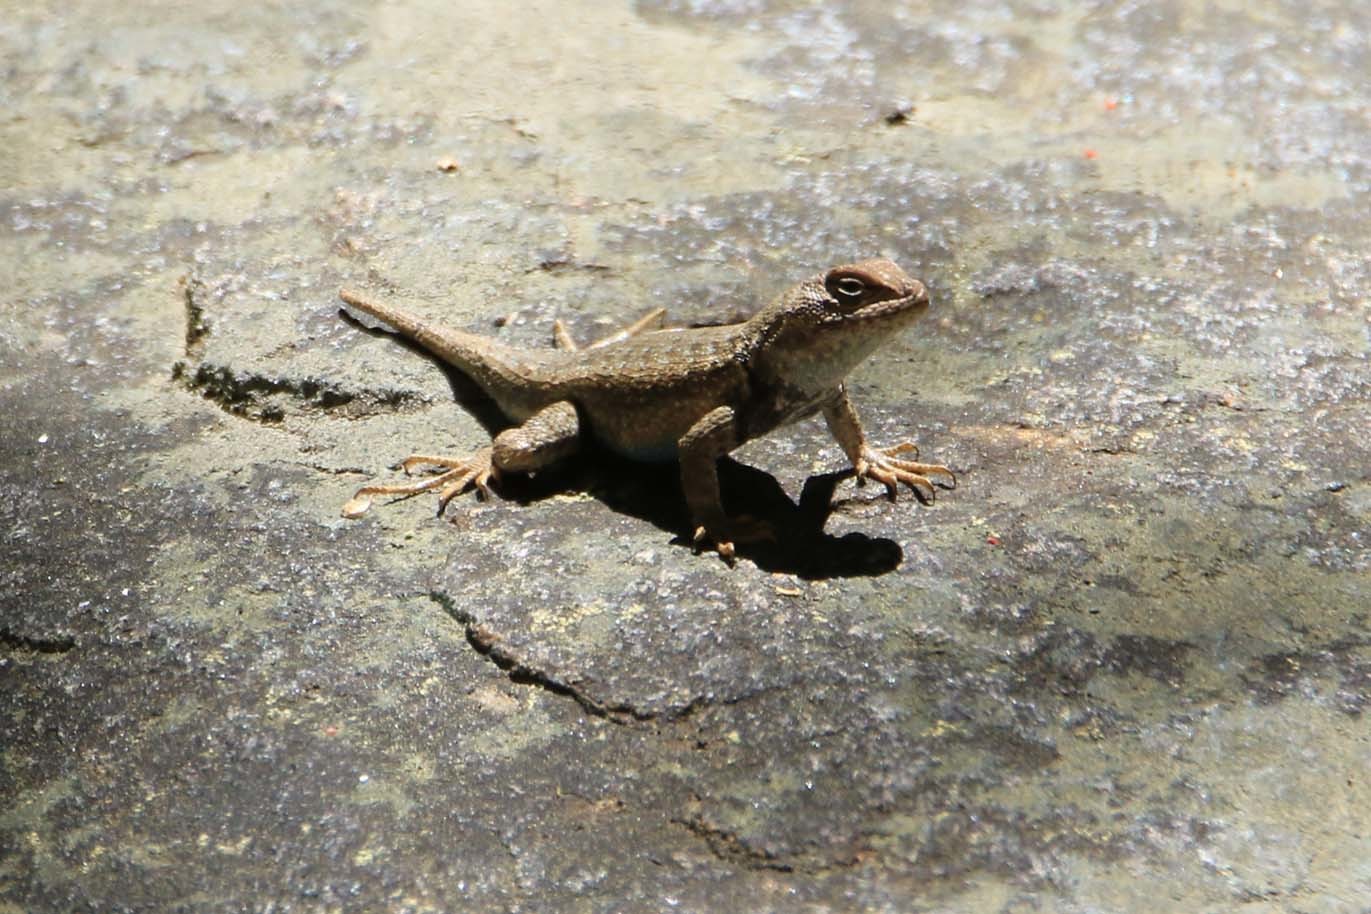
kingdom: Animalia
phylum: Chordata
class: Squamata
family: Phrynosomatidae
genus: Sceloporus
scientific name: Sceloporus occidentalis
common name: Western fence lizard
